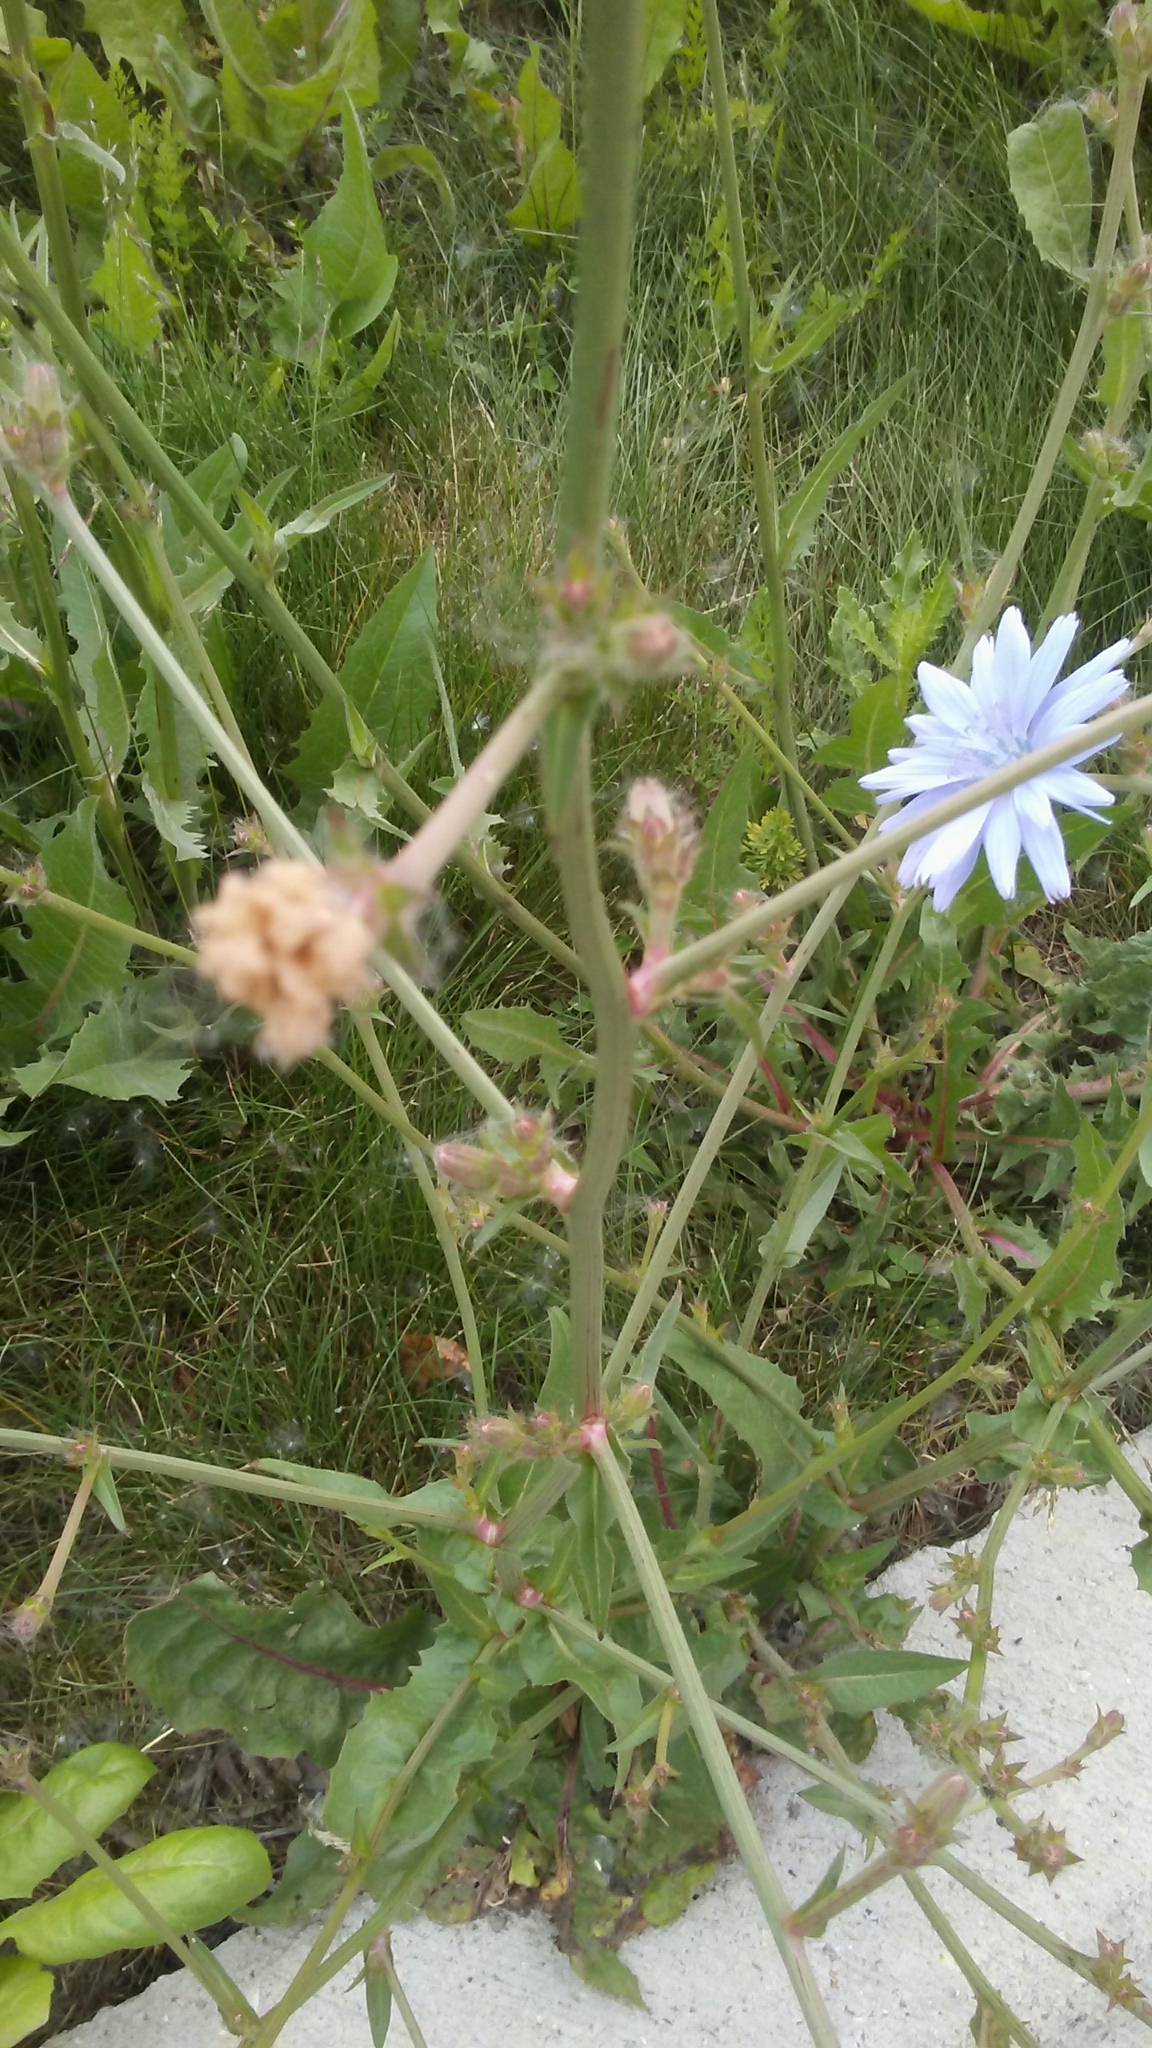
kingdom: Plantae
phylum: Tracheophyta
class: Magnoliopsida
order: Asterales
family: Asteraceae
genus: Cichorium
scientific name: Cichorium intybus
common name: Chicory
